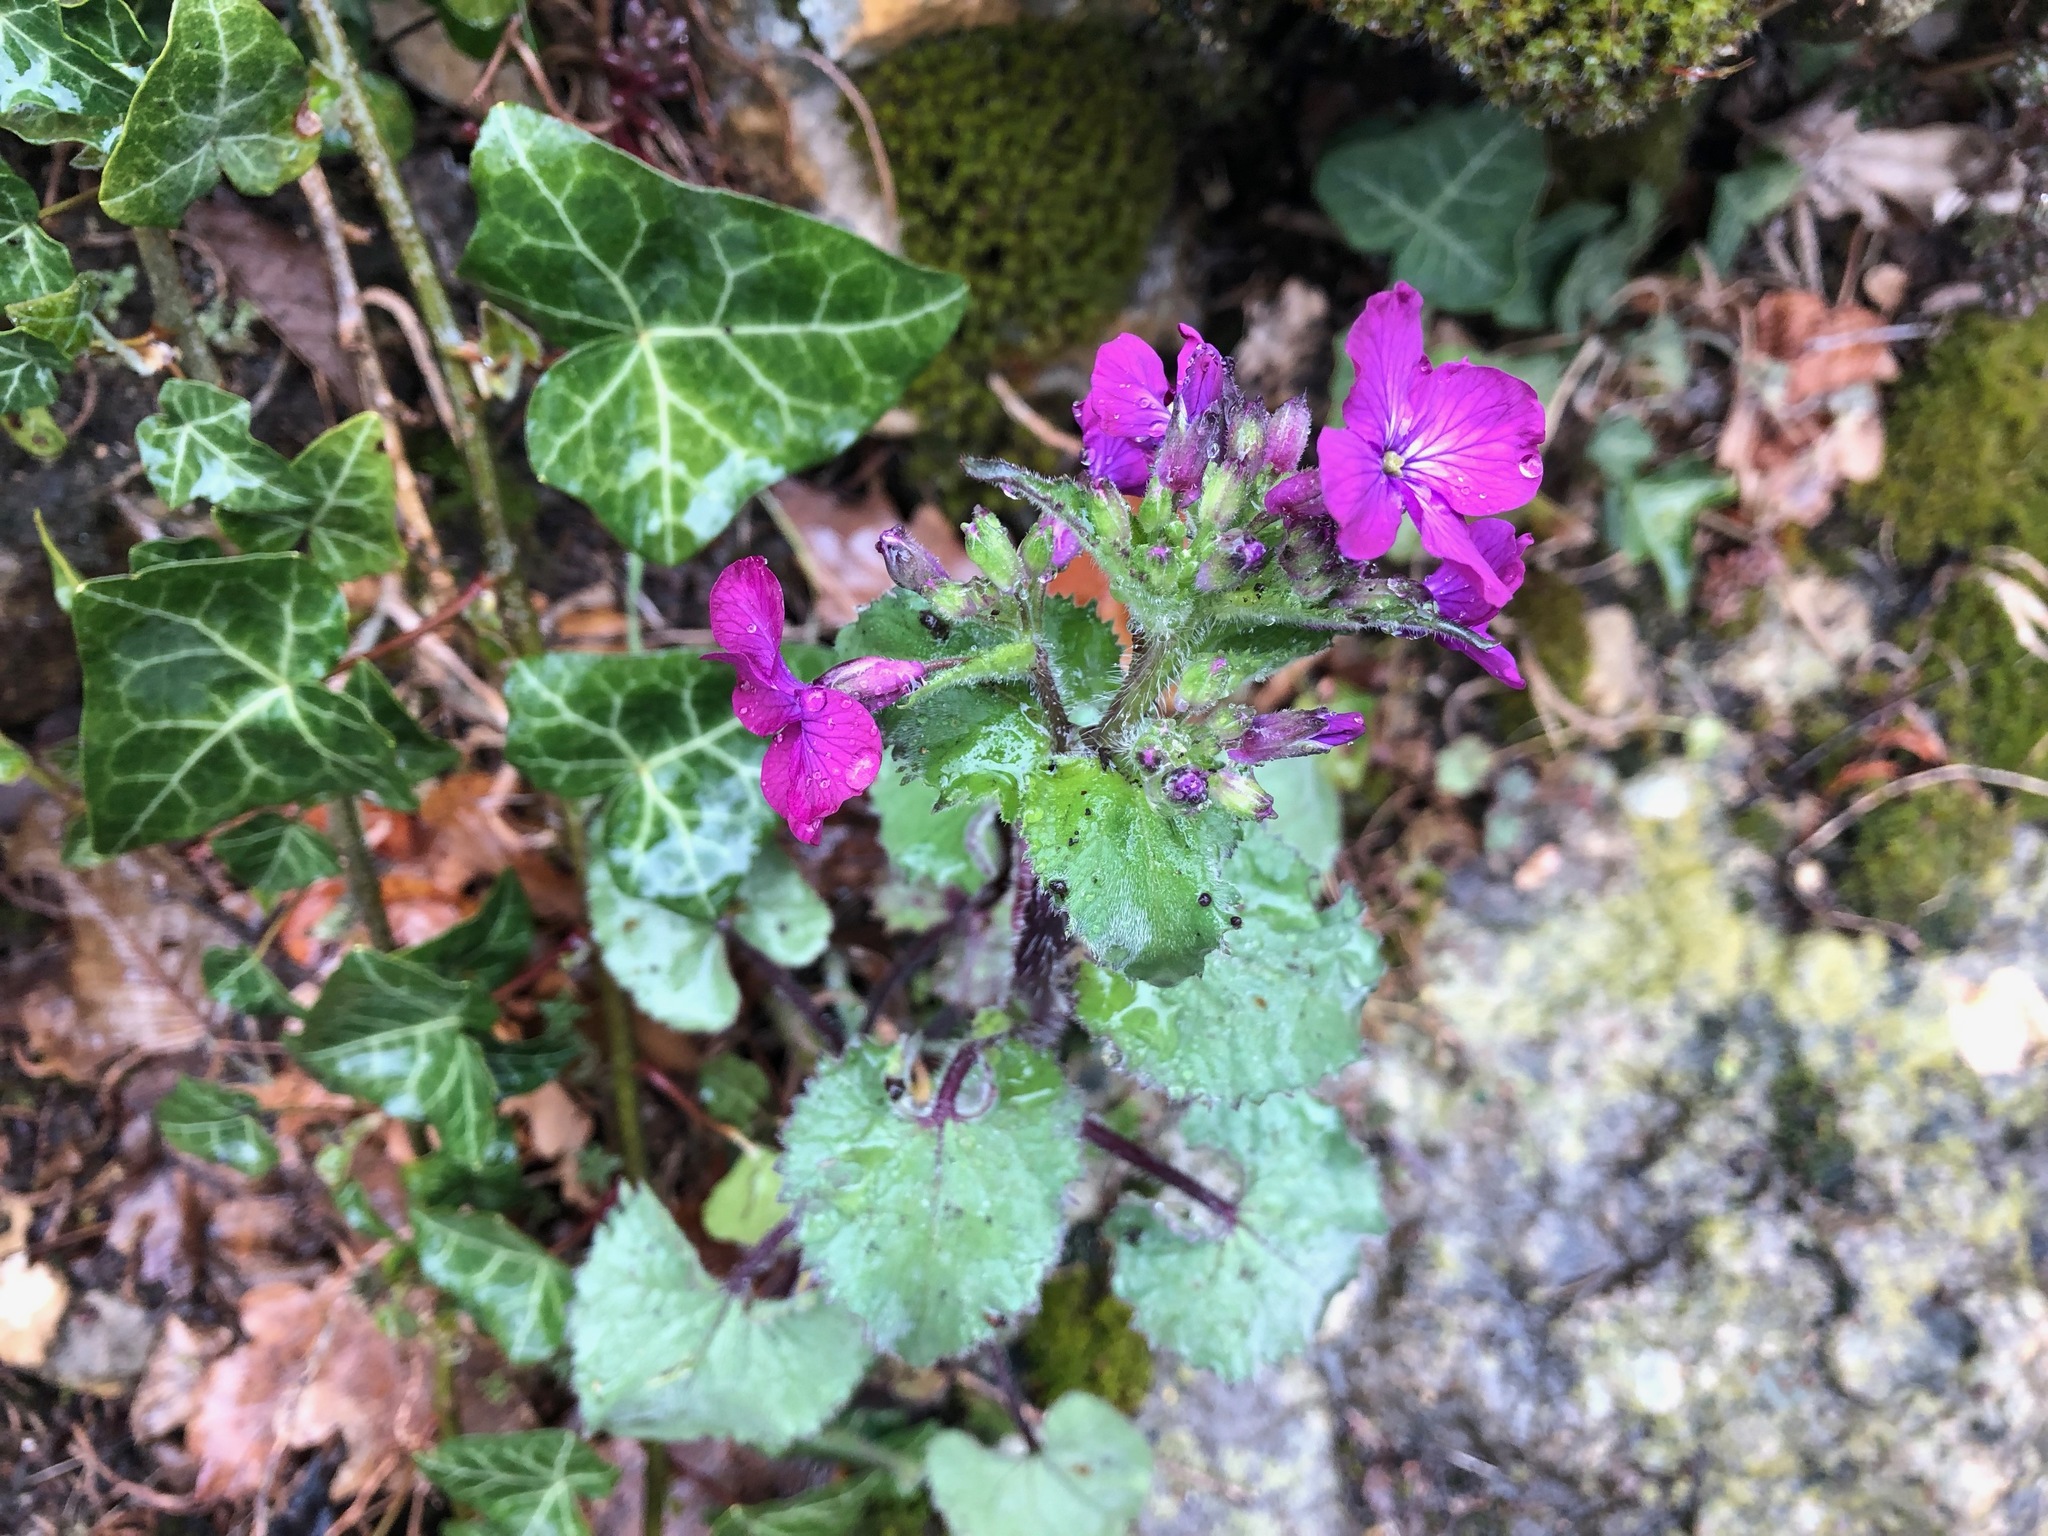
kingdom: Plantae
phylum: Tracheophyta
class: Magnoliopsida
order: Brassicales
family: Brassicaceae
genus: Lunaria
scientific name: Lunaria annua
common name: Honesty
